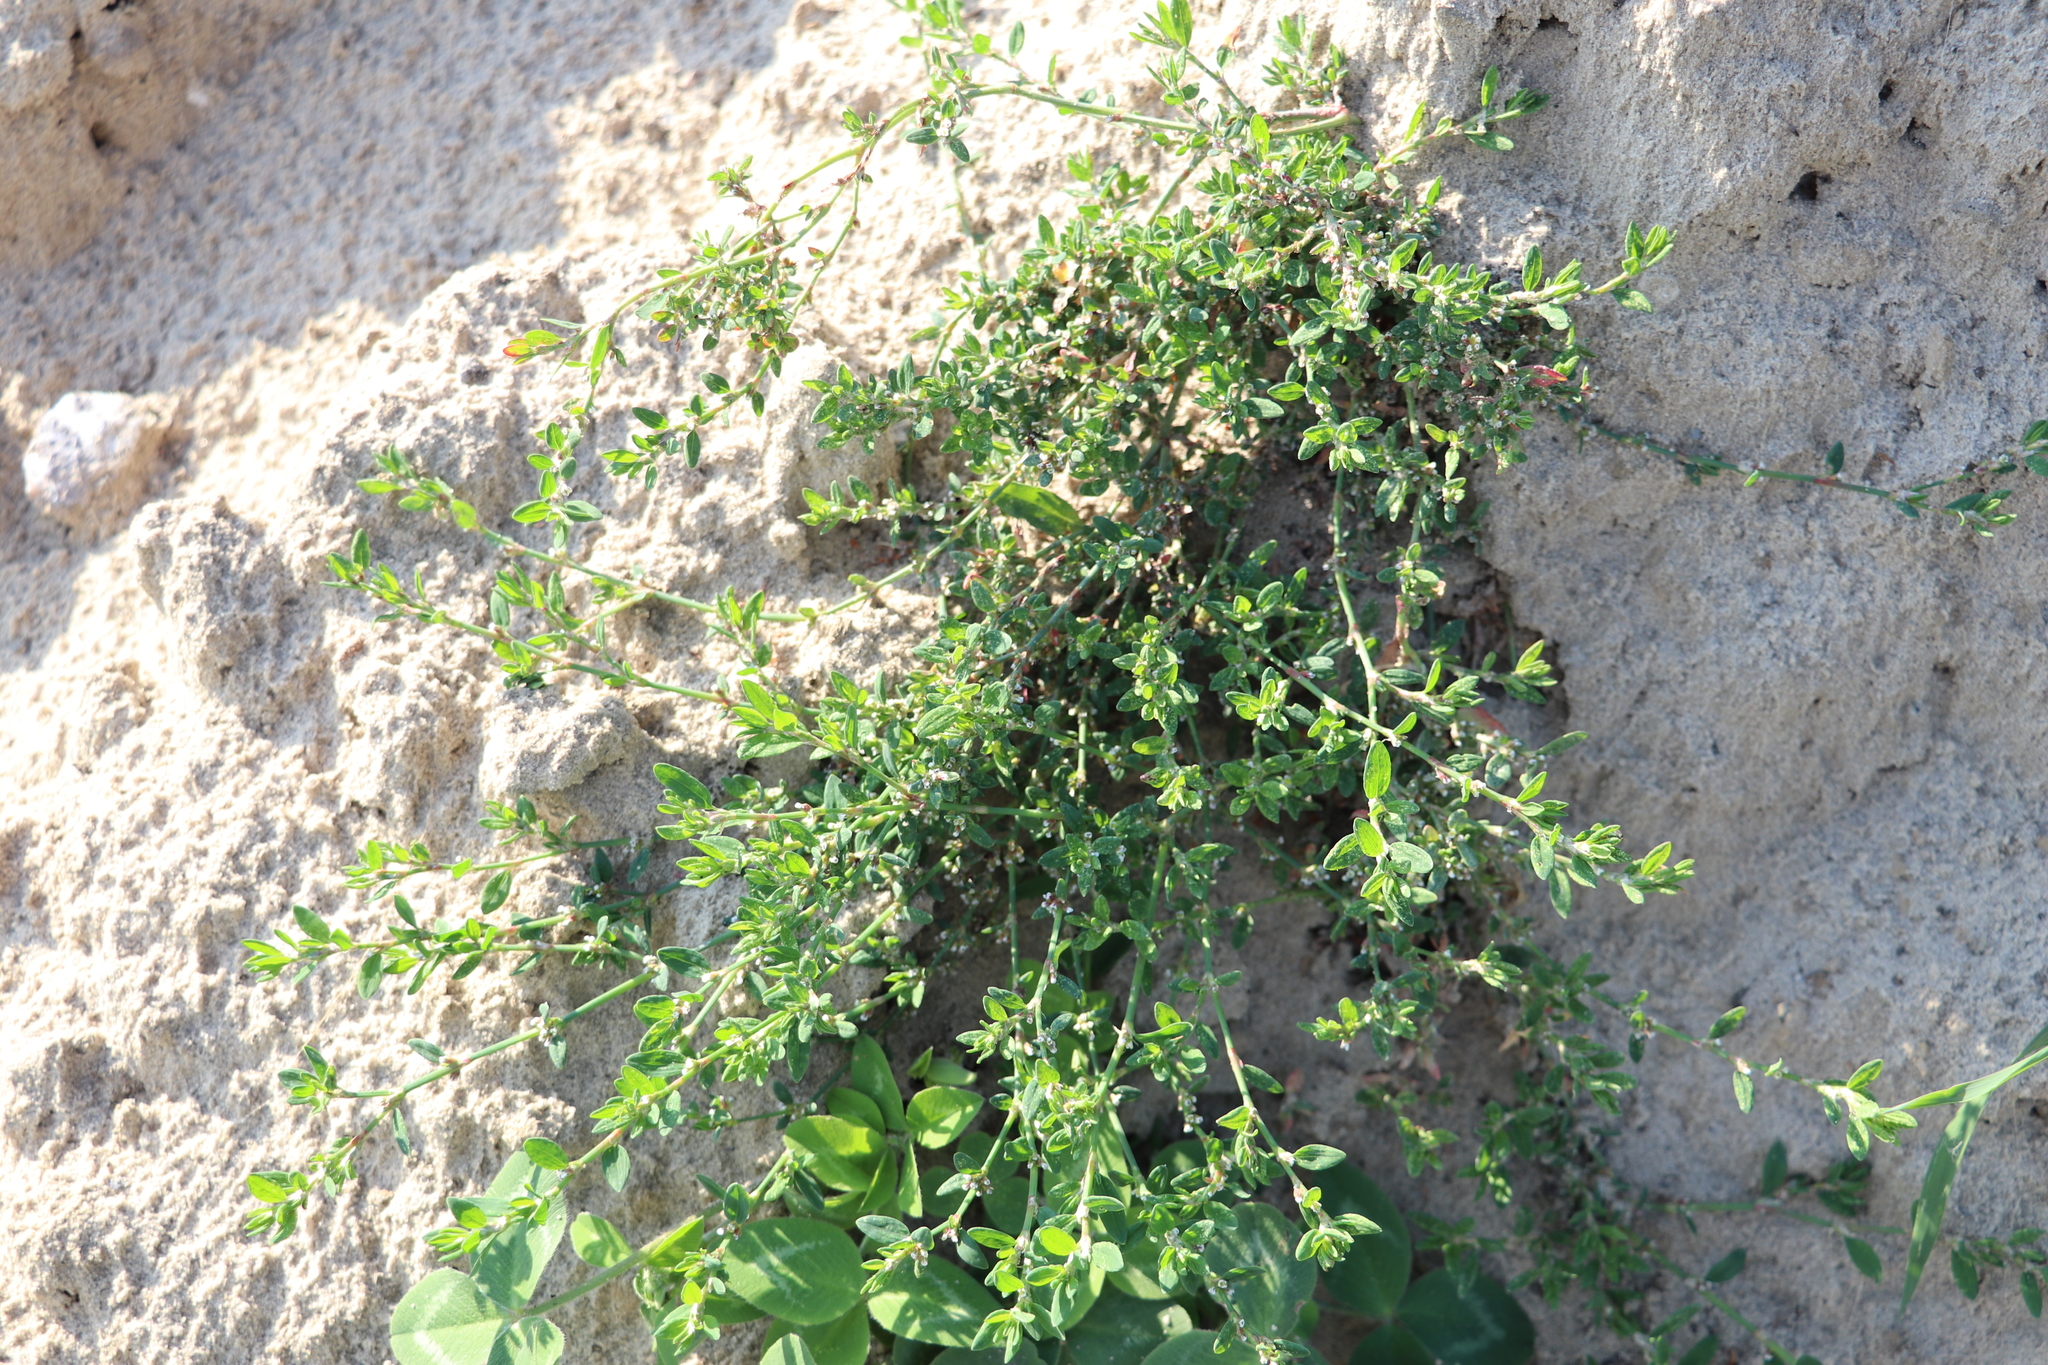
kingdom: Plantae
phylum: Tracheophyta
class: Magnoliopsida
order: Caryophyllales
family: Polygonaceae
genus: Polygonum
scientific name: Polygonum
